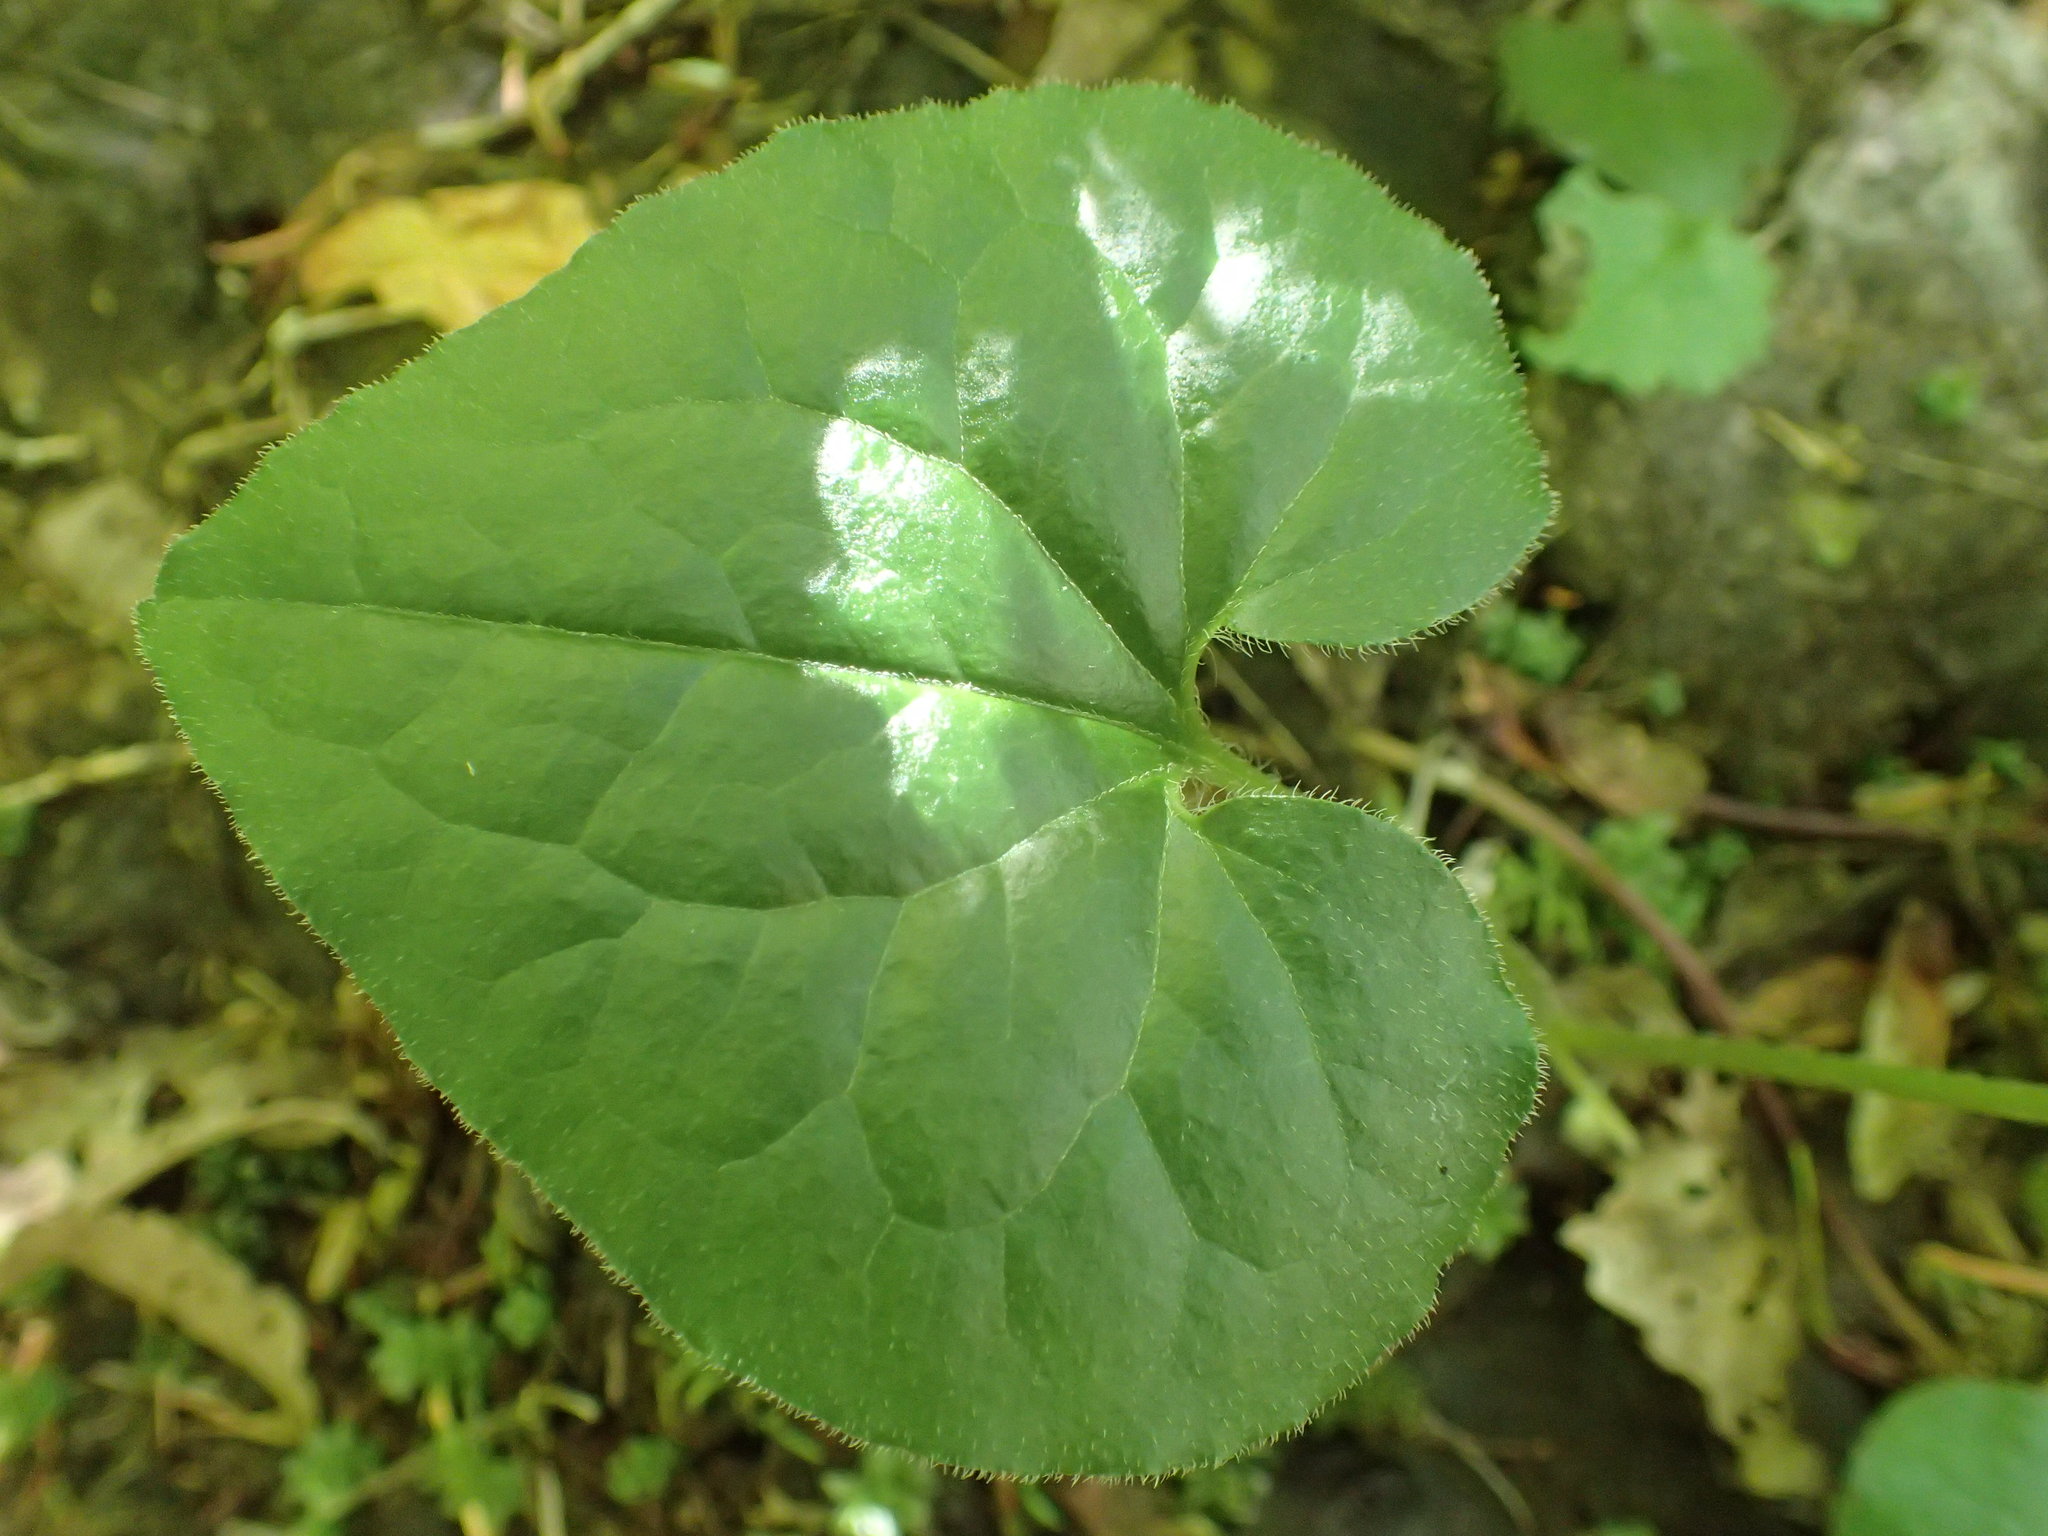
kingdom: Plantae
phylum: Tracheophyta
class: Magnoliopsida
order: Piperales
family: Aristolochiaceae
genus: Asarum
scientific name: Asarum caudatum
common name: Wild ginger
